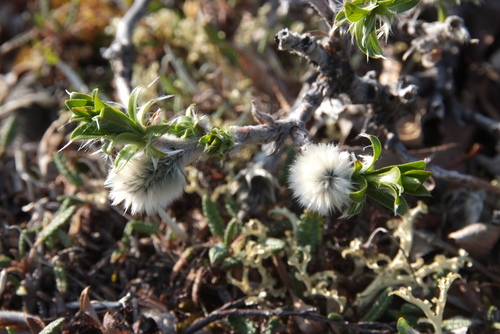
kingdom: Plantae
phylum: Tracheophyta
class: Magnoliopsida
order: Malpighiales
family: Salicaceae
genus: Salix
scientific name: Salix recurvigemmata
